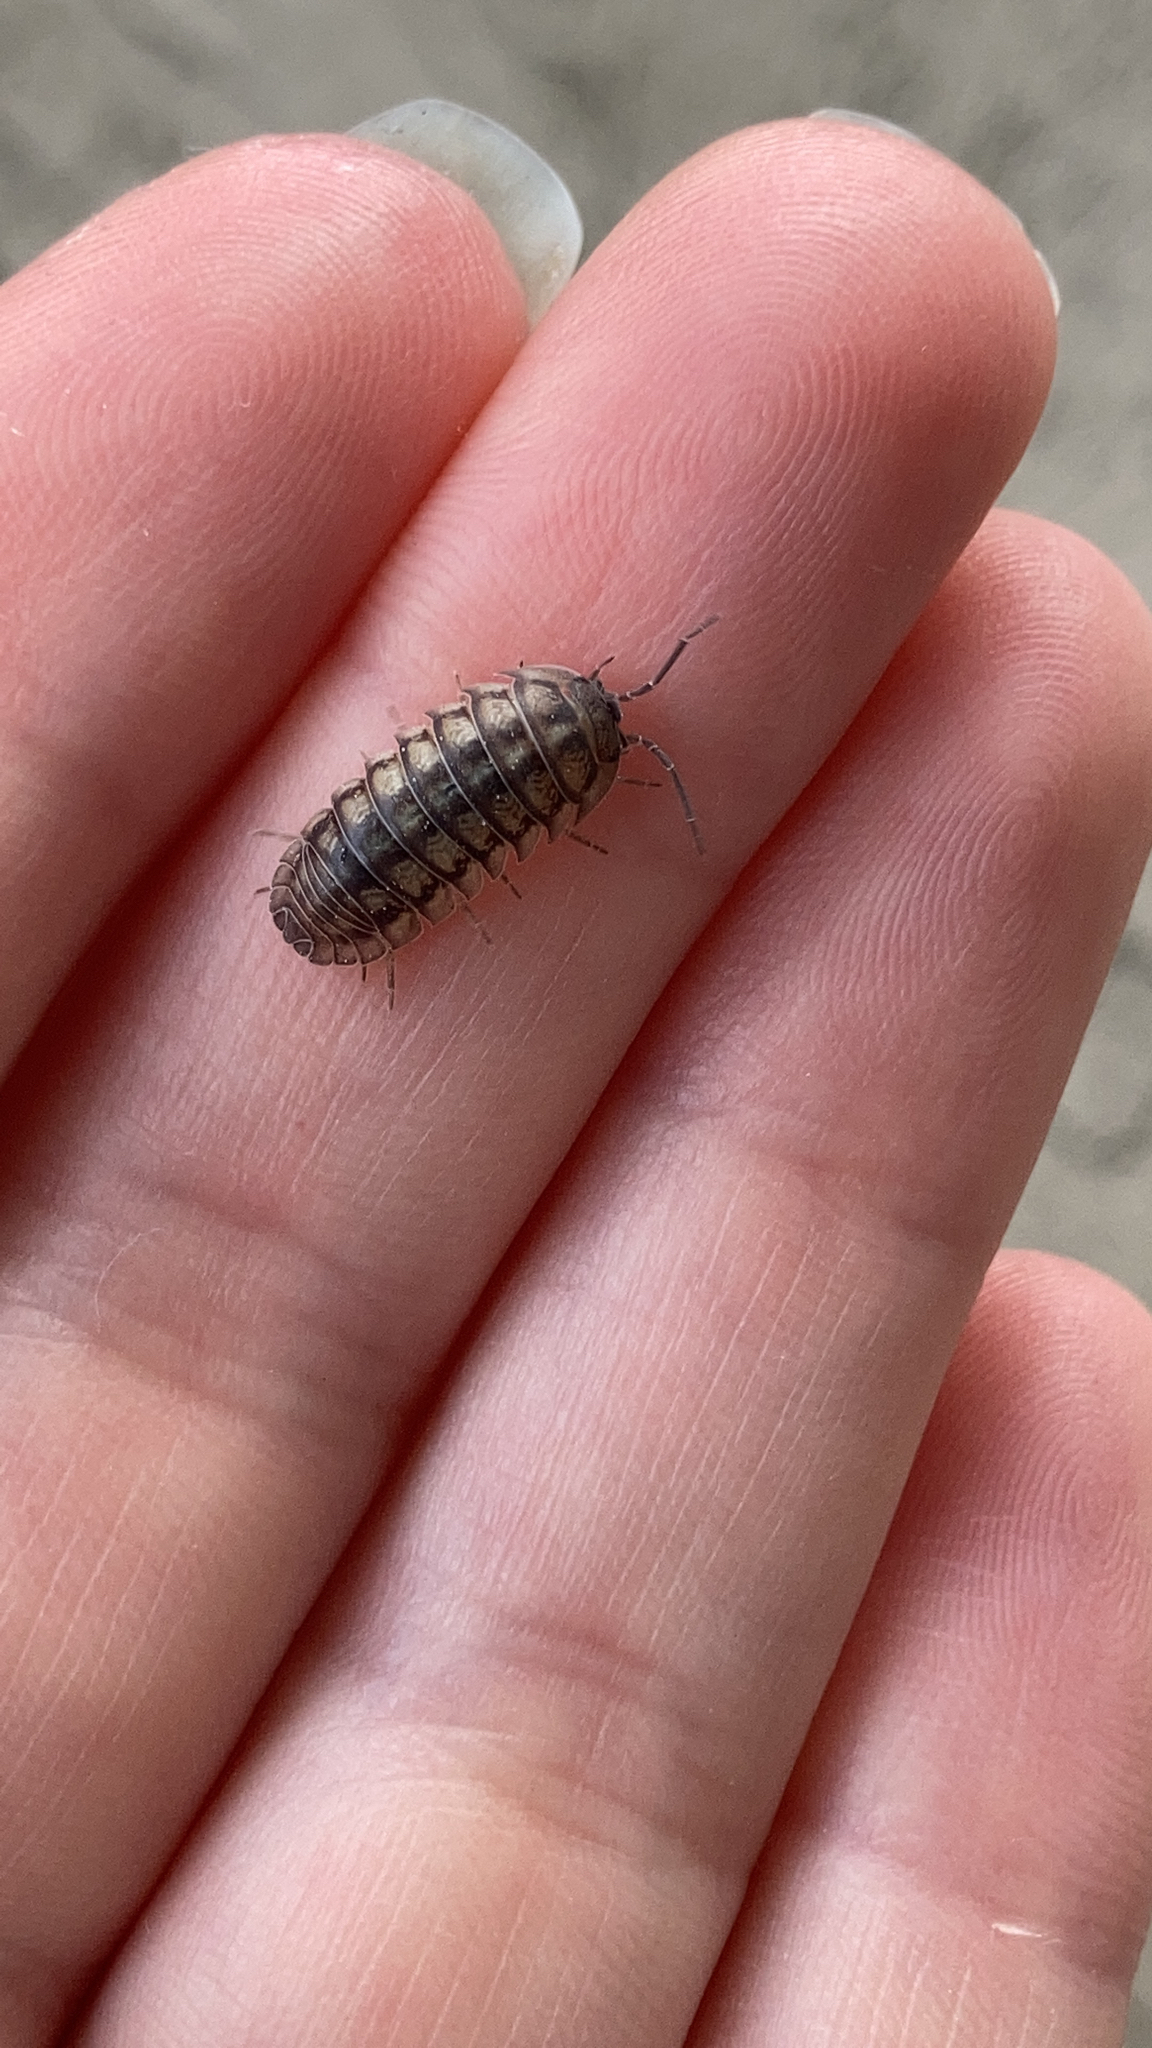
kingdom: Animalia
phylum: Arthropoda
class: Malacostraca
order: Isopoda
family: Armadillidiidae
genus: Armadillidium
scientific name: Armadillidium nasatum
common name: Isopod
